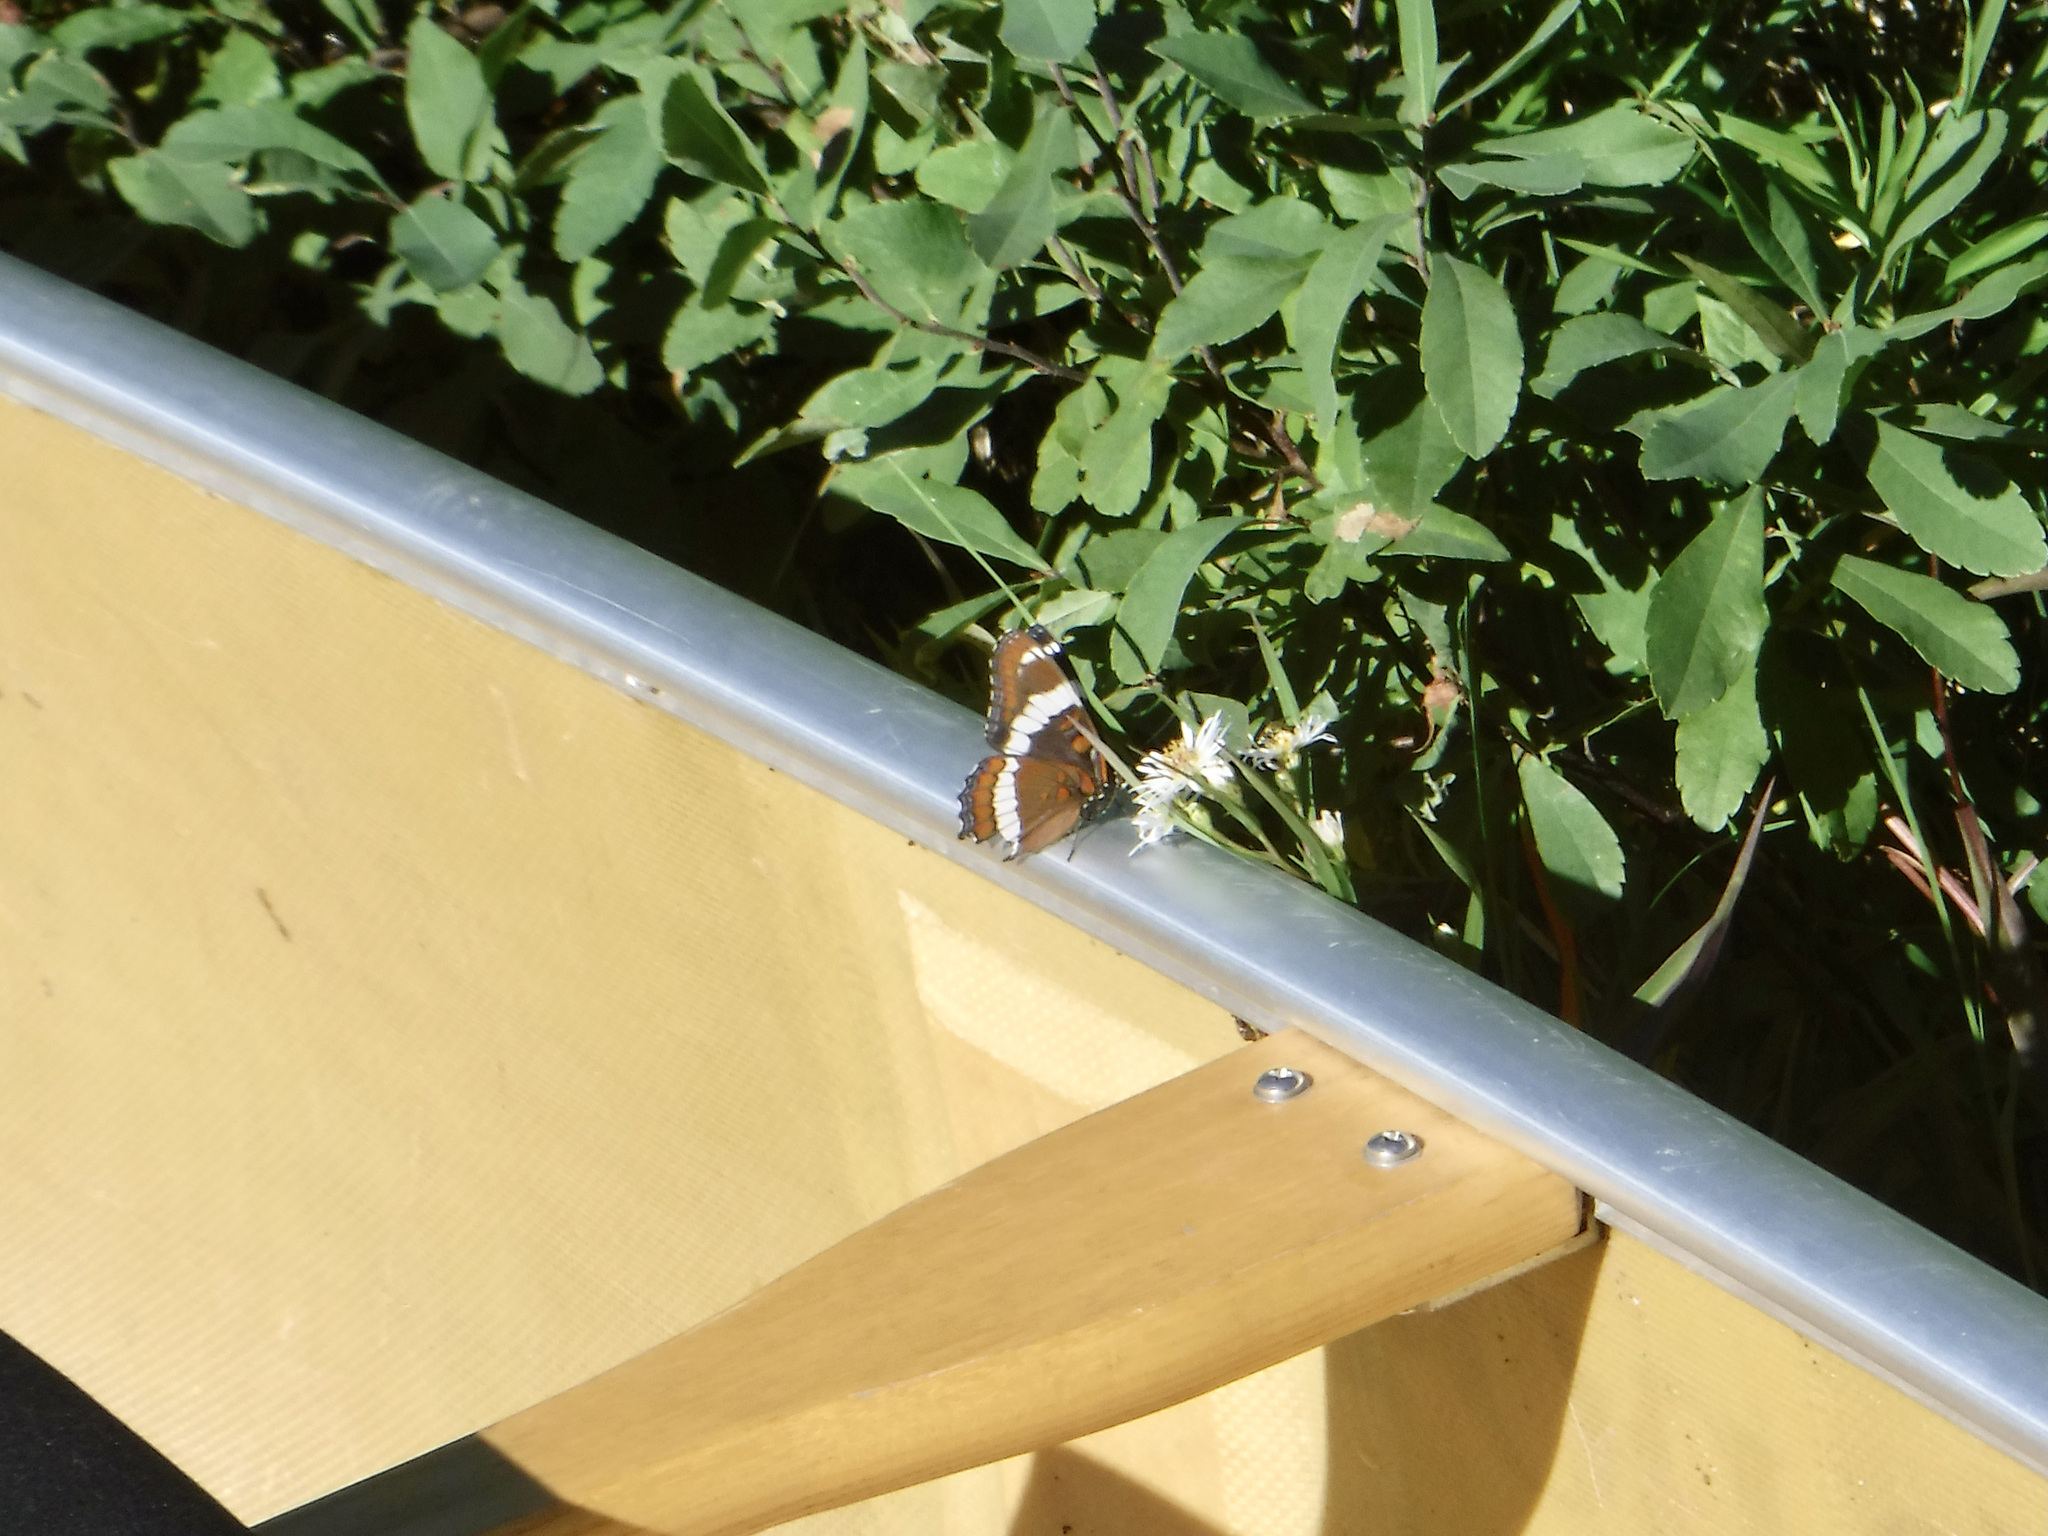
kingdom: Animalia
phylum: Arthropoda
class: Insecta
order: Lepidoptera
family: Nymphalidae
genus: Limenitis
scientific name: Limenitis arthemis
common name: Red-spotted admiral
